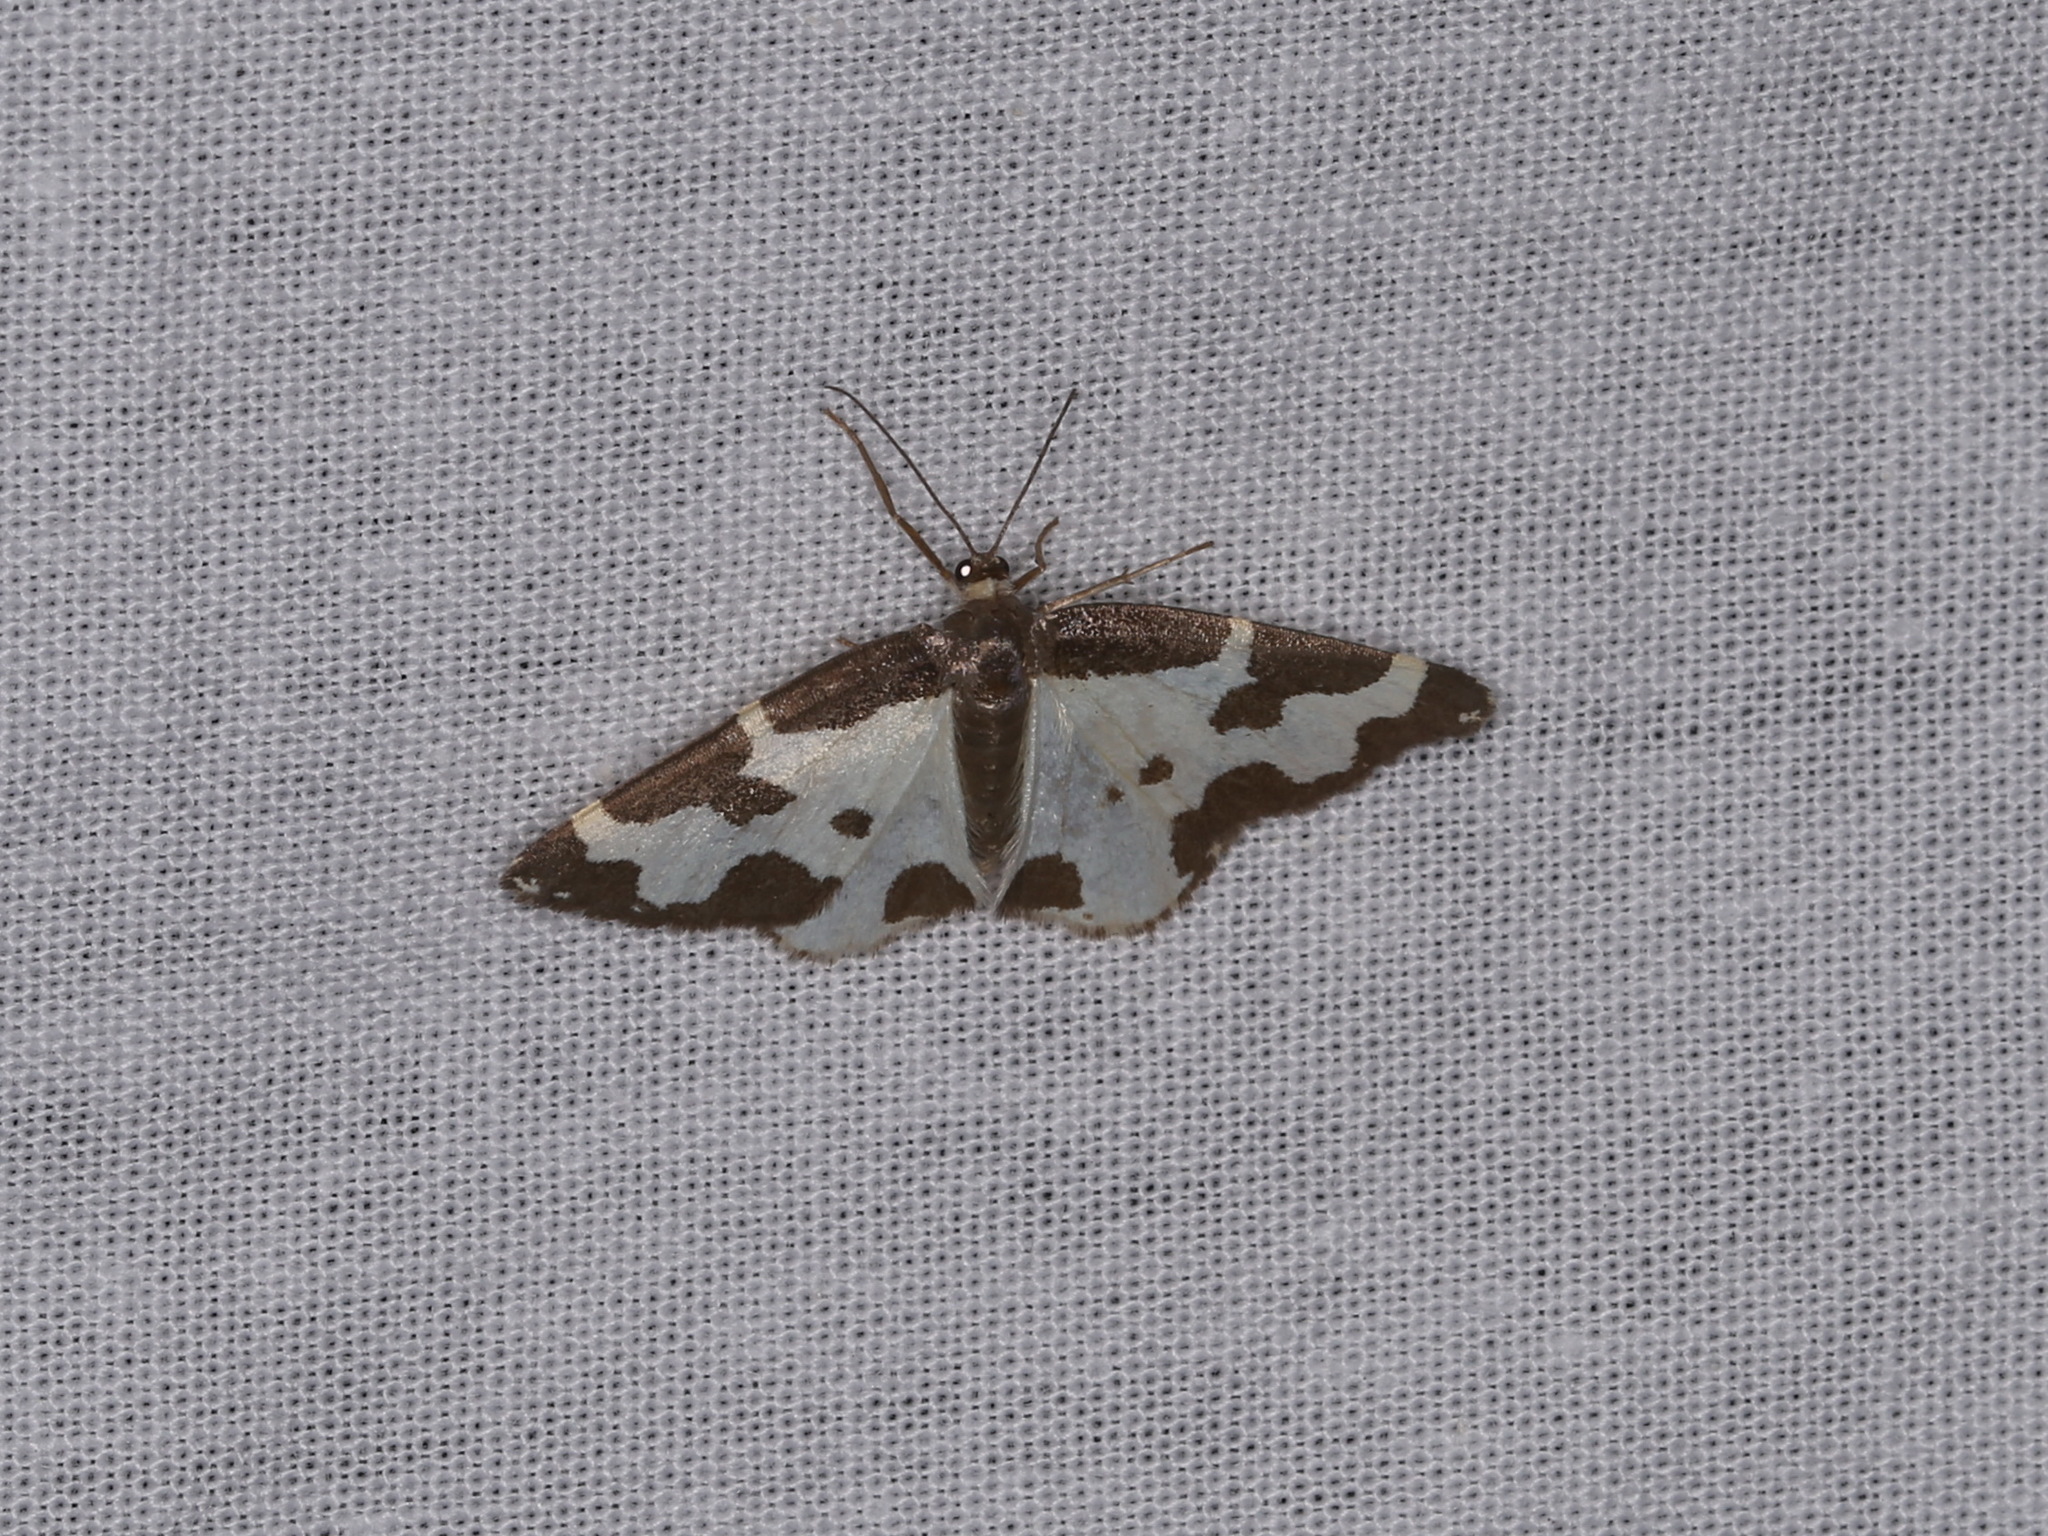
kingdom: Animalia
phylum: Arthropoda
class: Insecta
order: Lepidoptera
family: Geometridae
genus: Lomaspilis
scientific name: Lomaspilis marginata
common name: Clouded border
